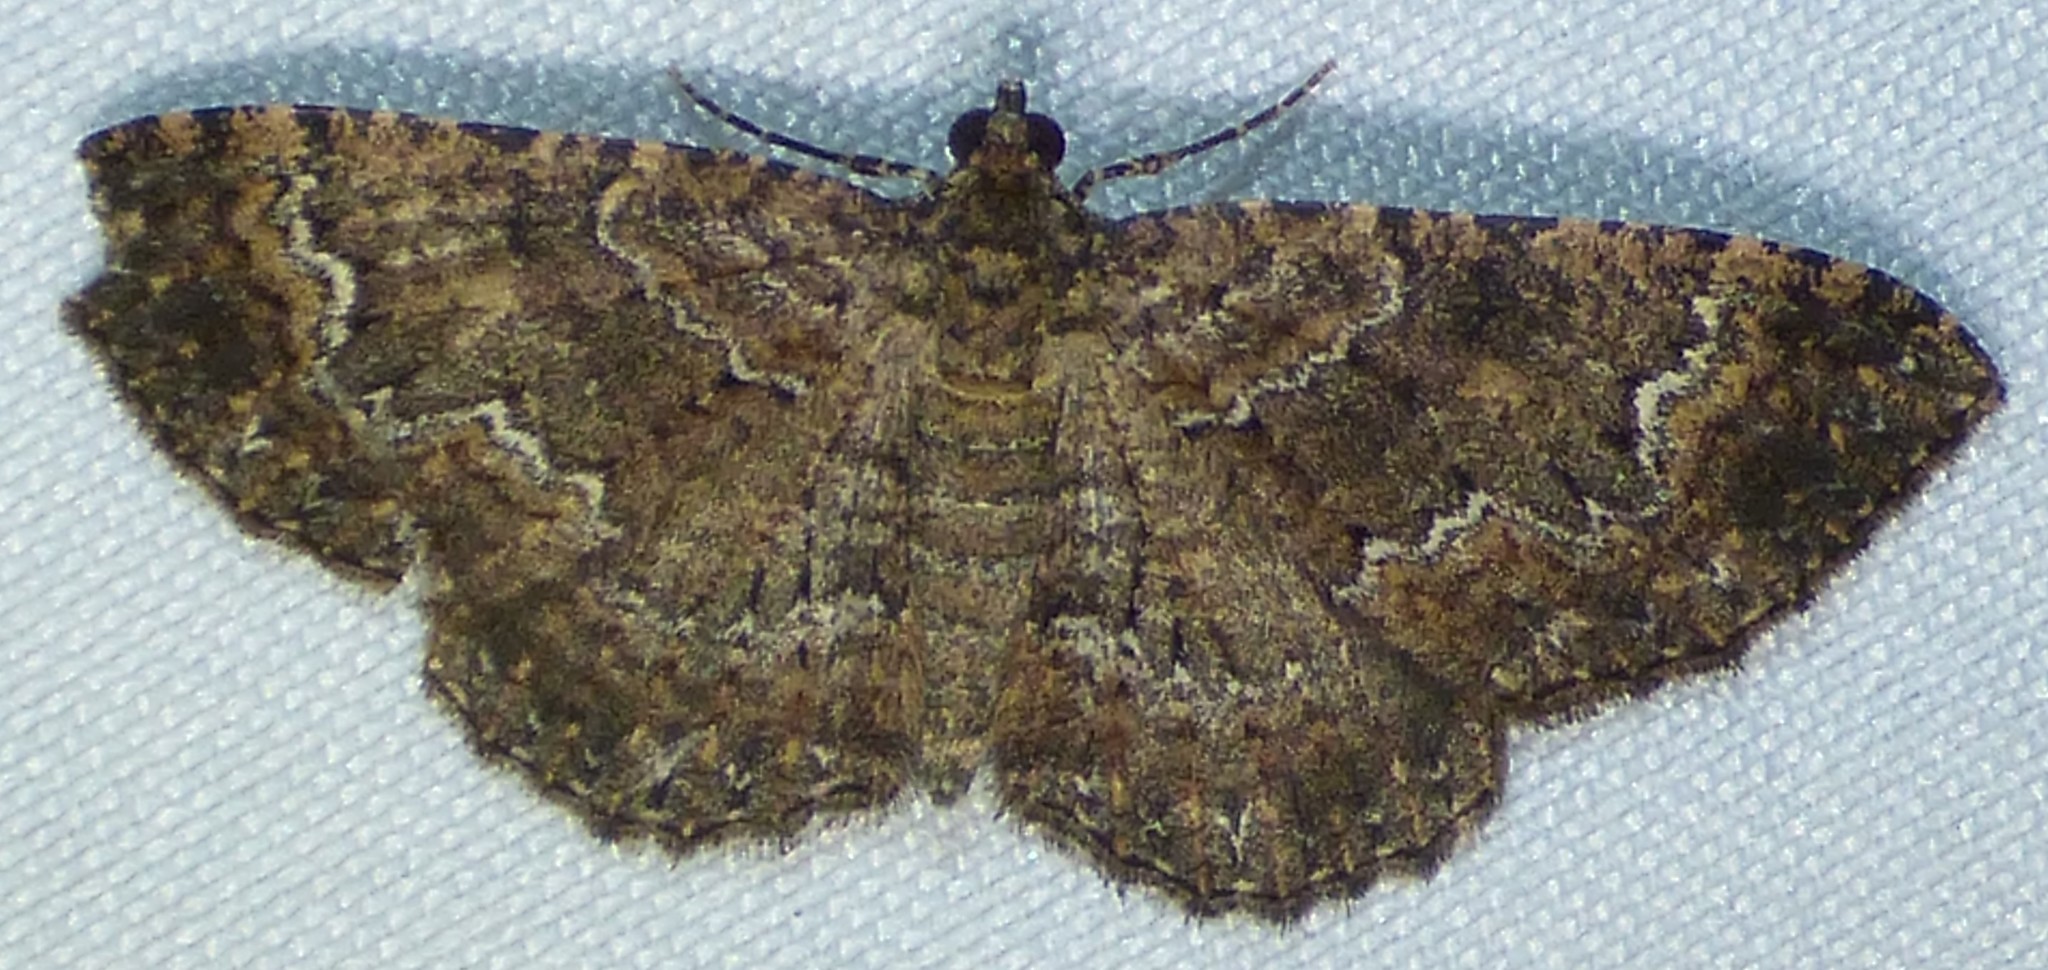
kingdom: Animalia
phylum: Arthropoda
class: Insecta
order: Lepidoptera
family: Geometridae
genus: Disclisioprocta
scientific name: Disclisioprocta stellata
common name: Somber carpet
